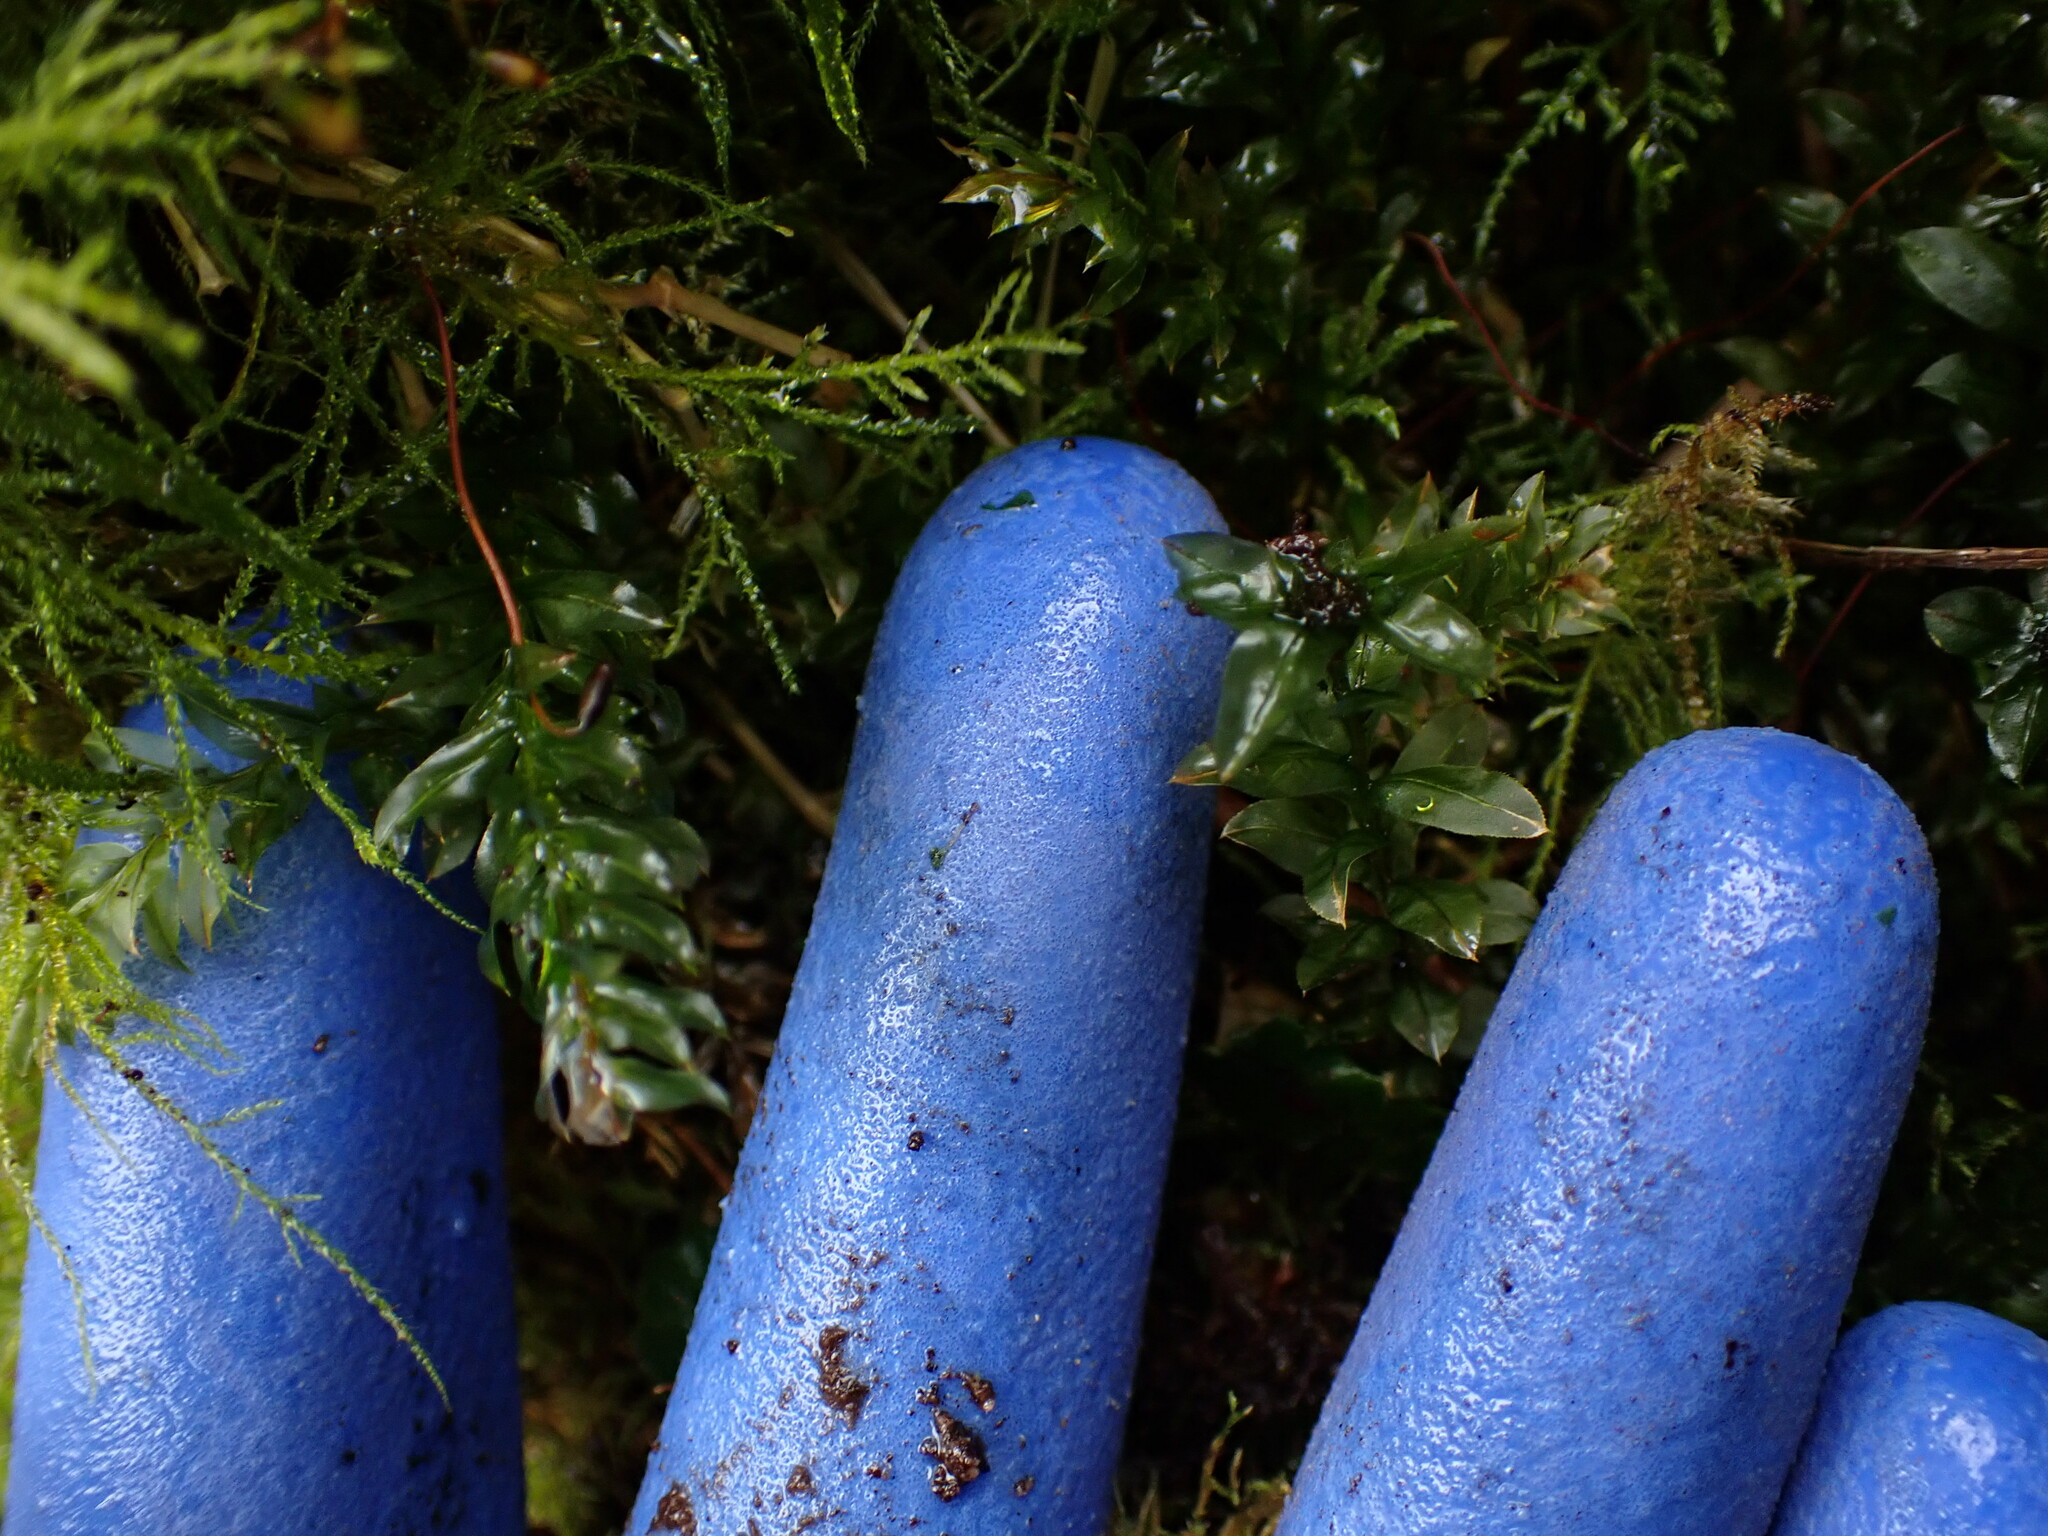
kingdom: Plantae
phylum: Bryophyta
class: Bryopsida
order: Bryales
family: Mniaceae
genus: Plagiomnium
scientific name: Plagiomnium insigne
